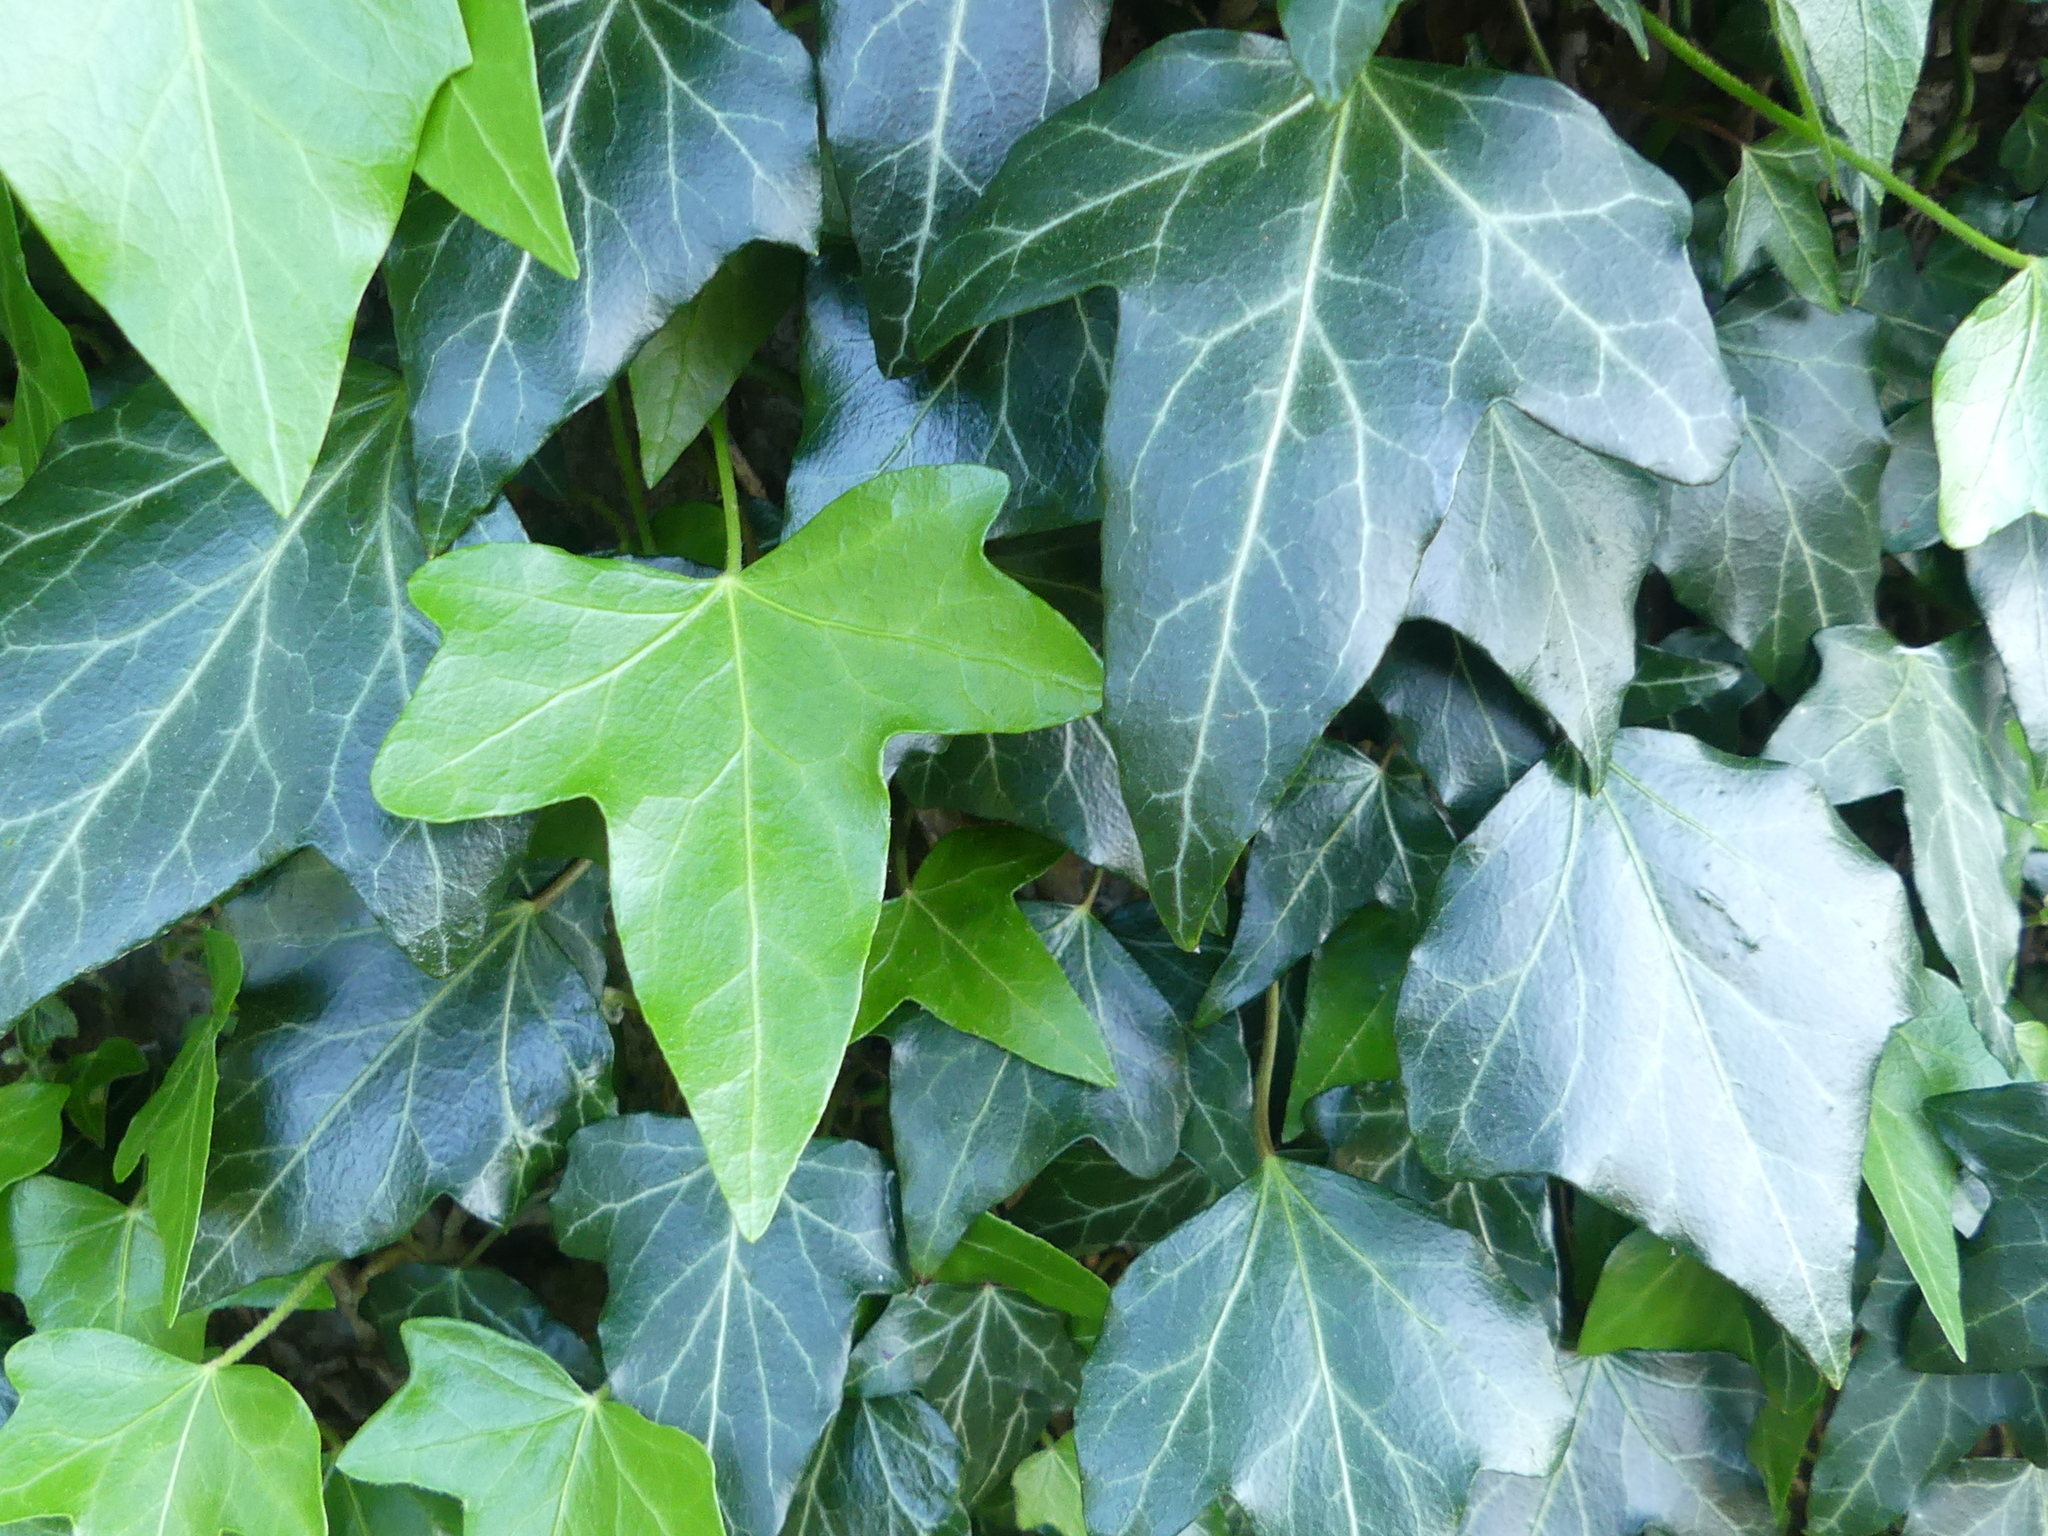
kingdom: Plantae
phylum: Tracheophyta
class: Magnoliopsida
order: Apiales
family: Araliaceae
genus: Hedera
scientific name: Hedera helix
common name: Ivy
